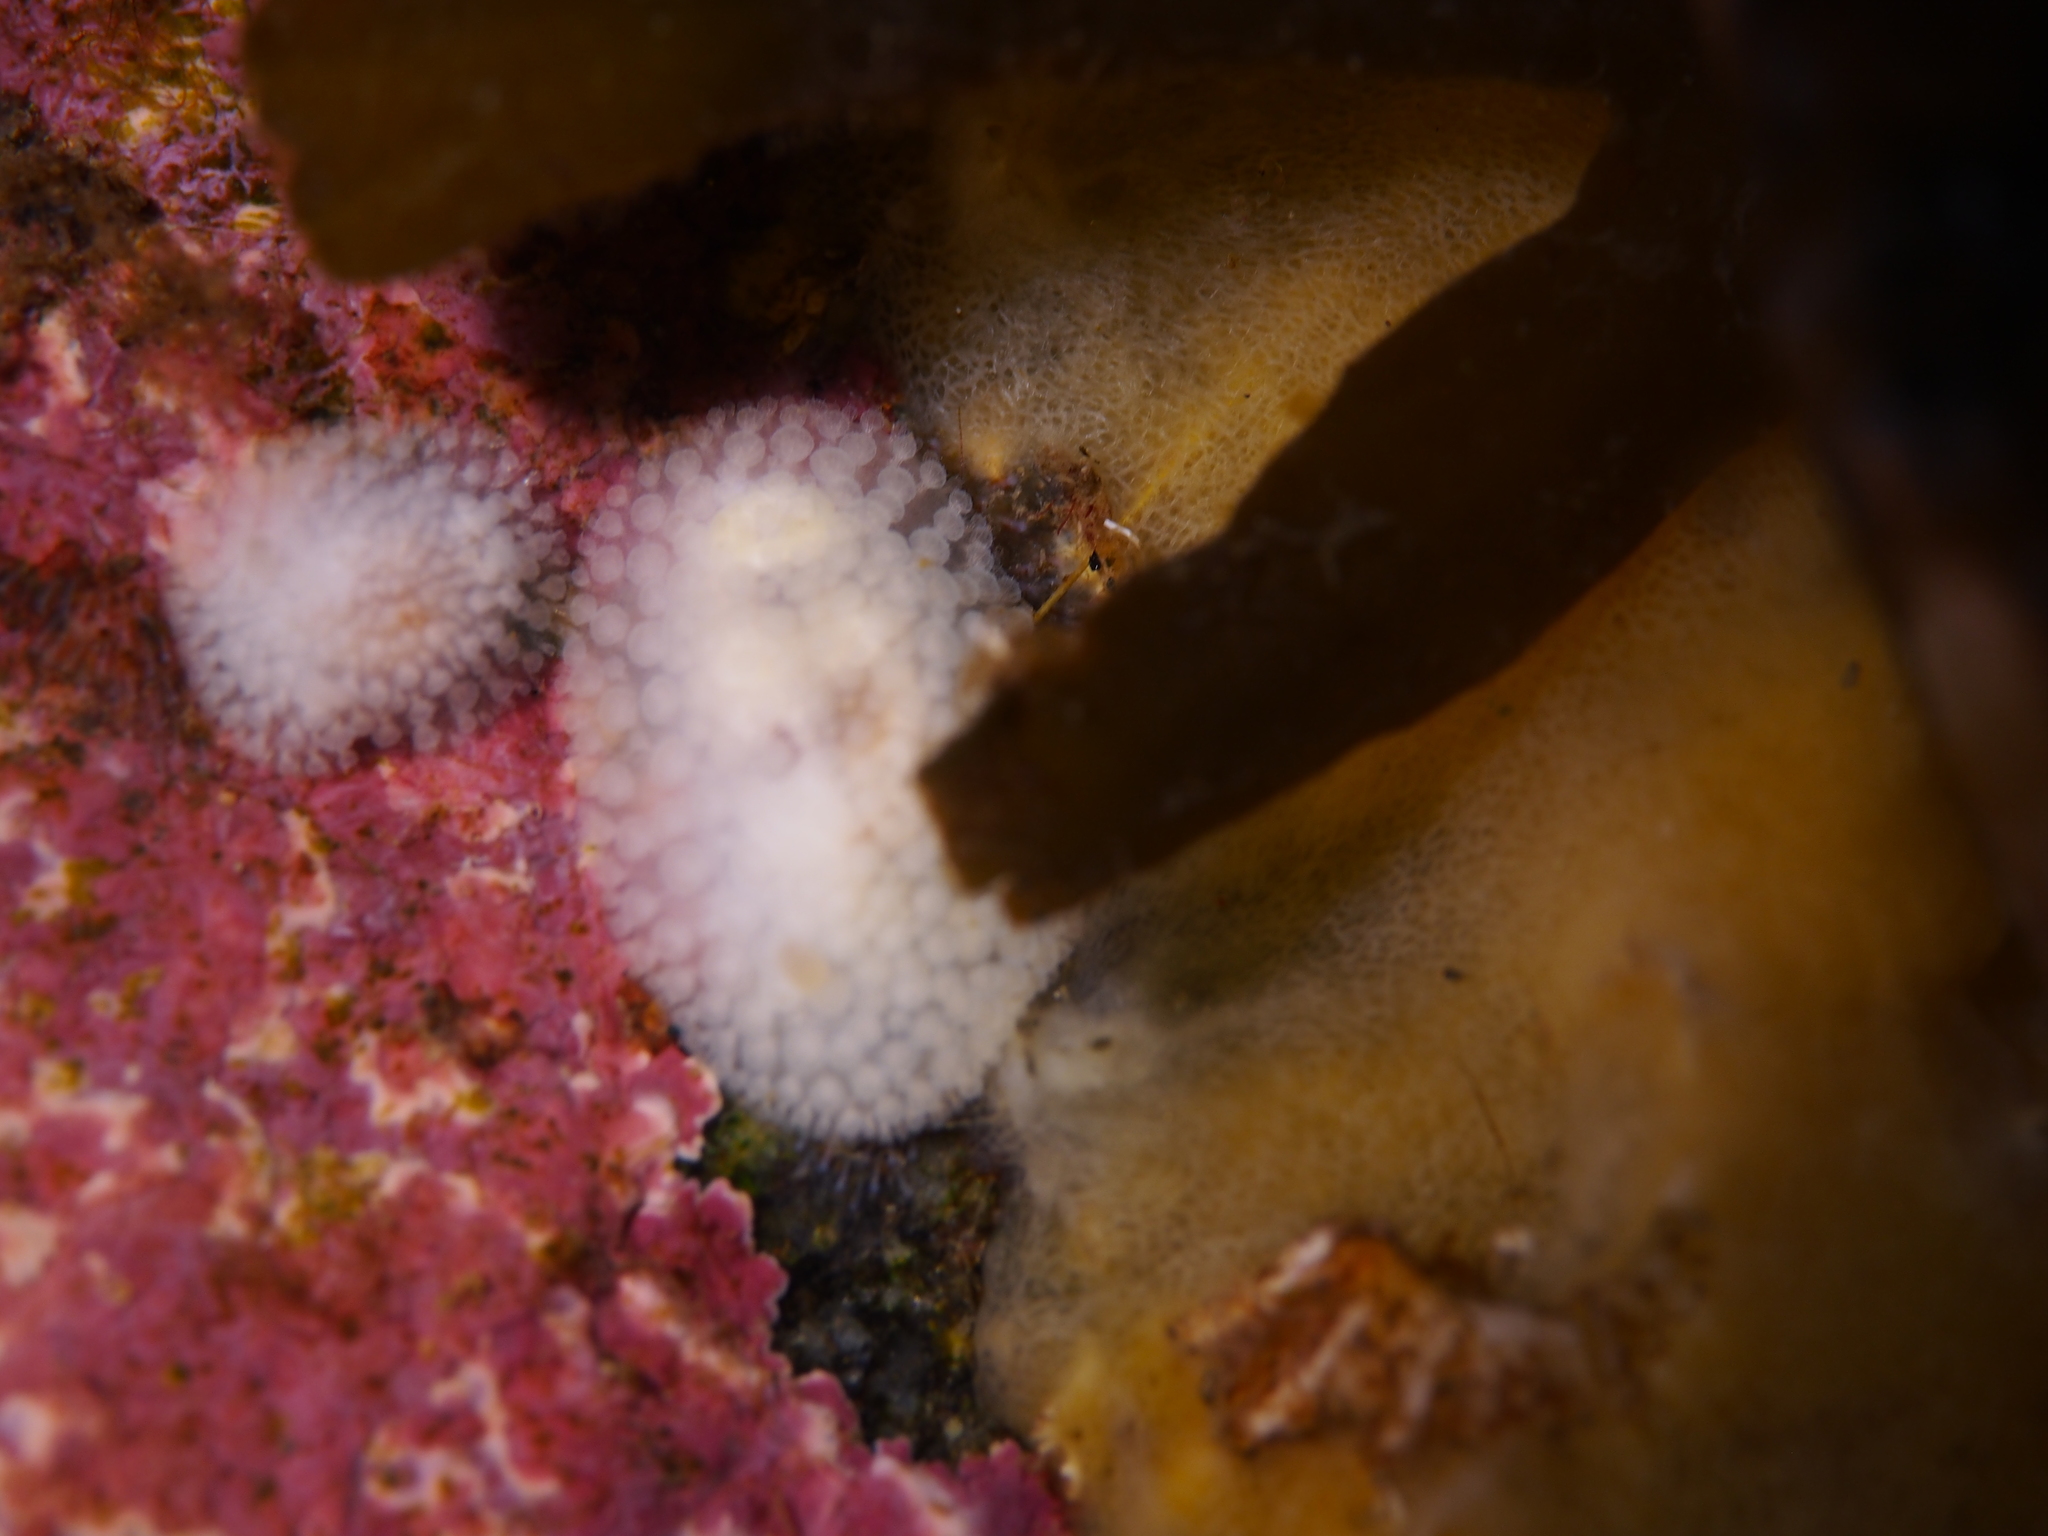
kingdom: Animalia
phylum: Mollusca
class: Gastropoda
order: Nudibranchia
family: Onchidorididae
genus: Onchidoris
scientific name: Onchidoris muricata
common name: Rough doris
